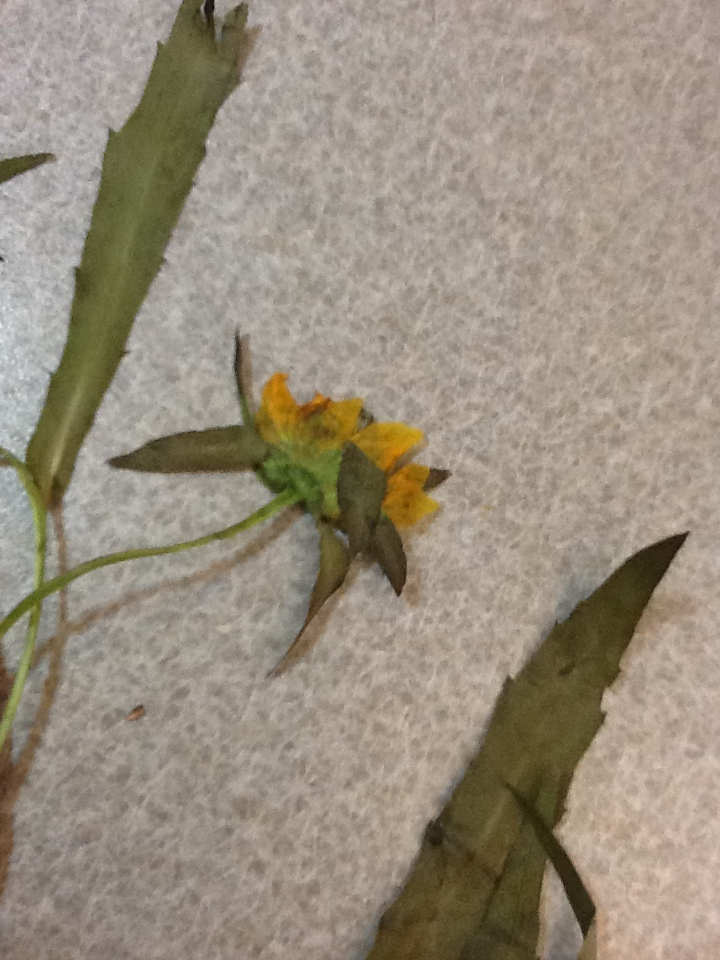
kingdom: Plantae
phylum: Tracheophyta
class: Magnoliopsida
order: Asterales
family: Asteraceae
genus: Bidens
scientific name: Bidens cernua
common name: Nodding bur-marigold
